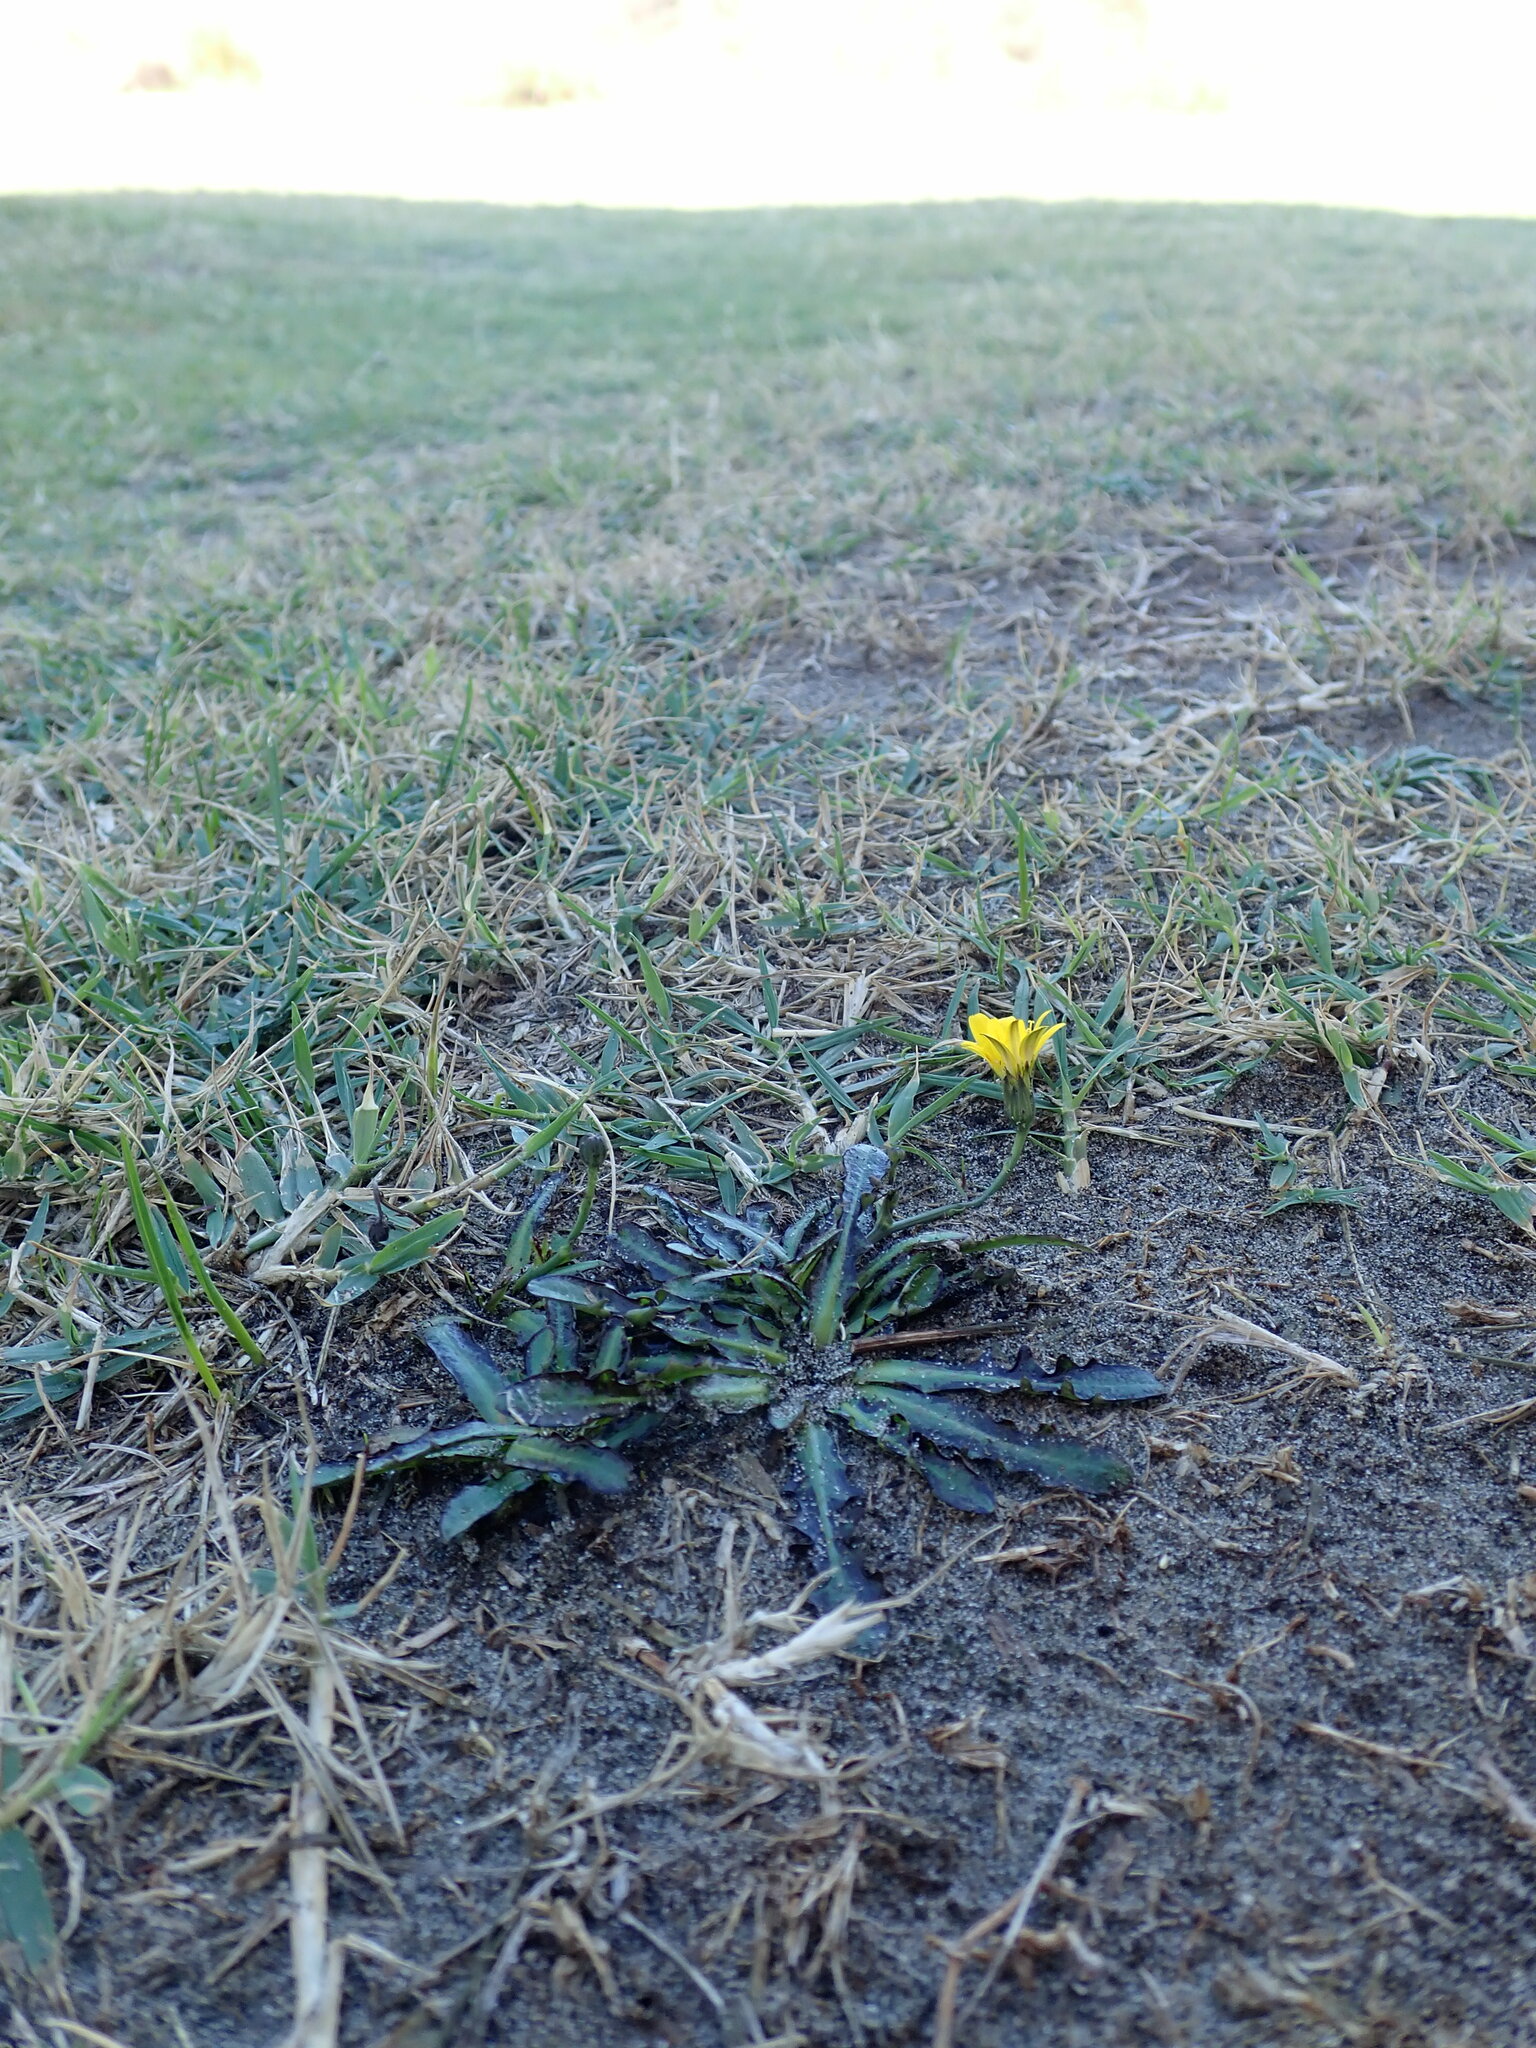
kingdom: Plantae
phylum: Tracheophyta
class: Magnoliopsida
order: Asterales
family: Asteraceae
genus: Hypochaeris
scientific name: Hypochaeris radicata
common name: Flatweed
